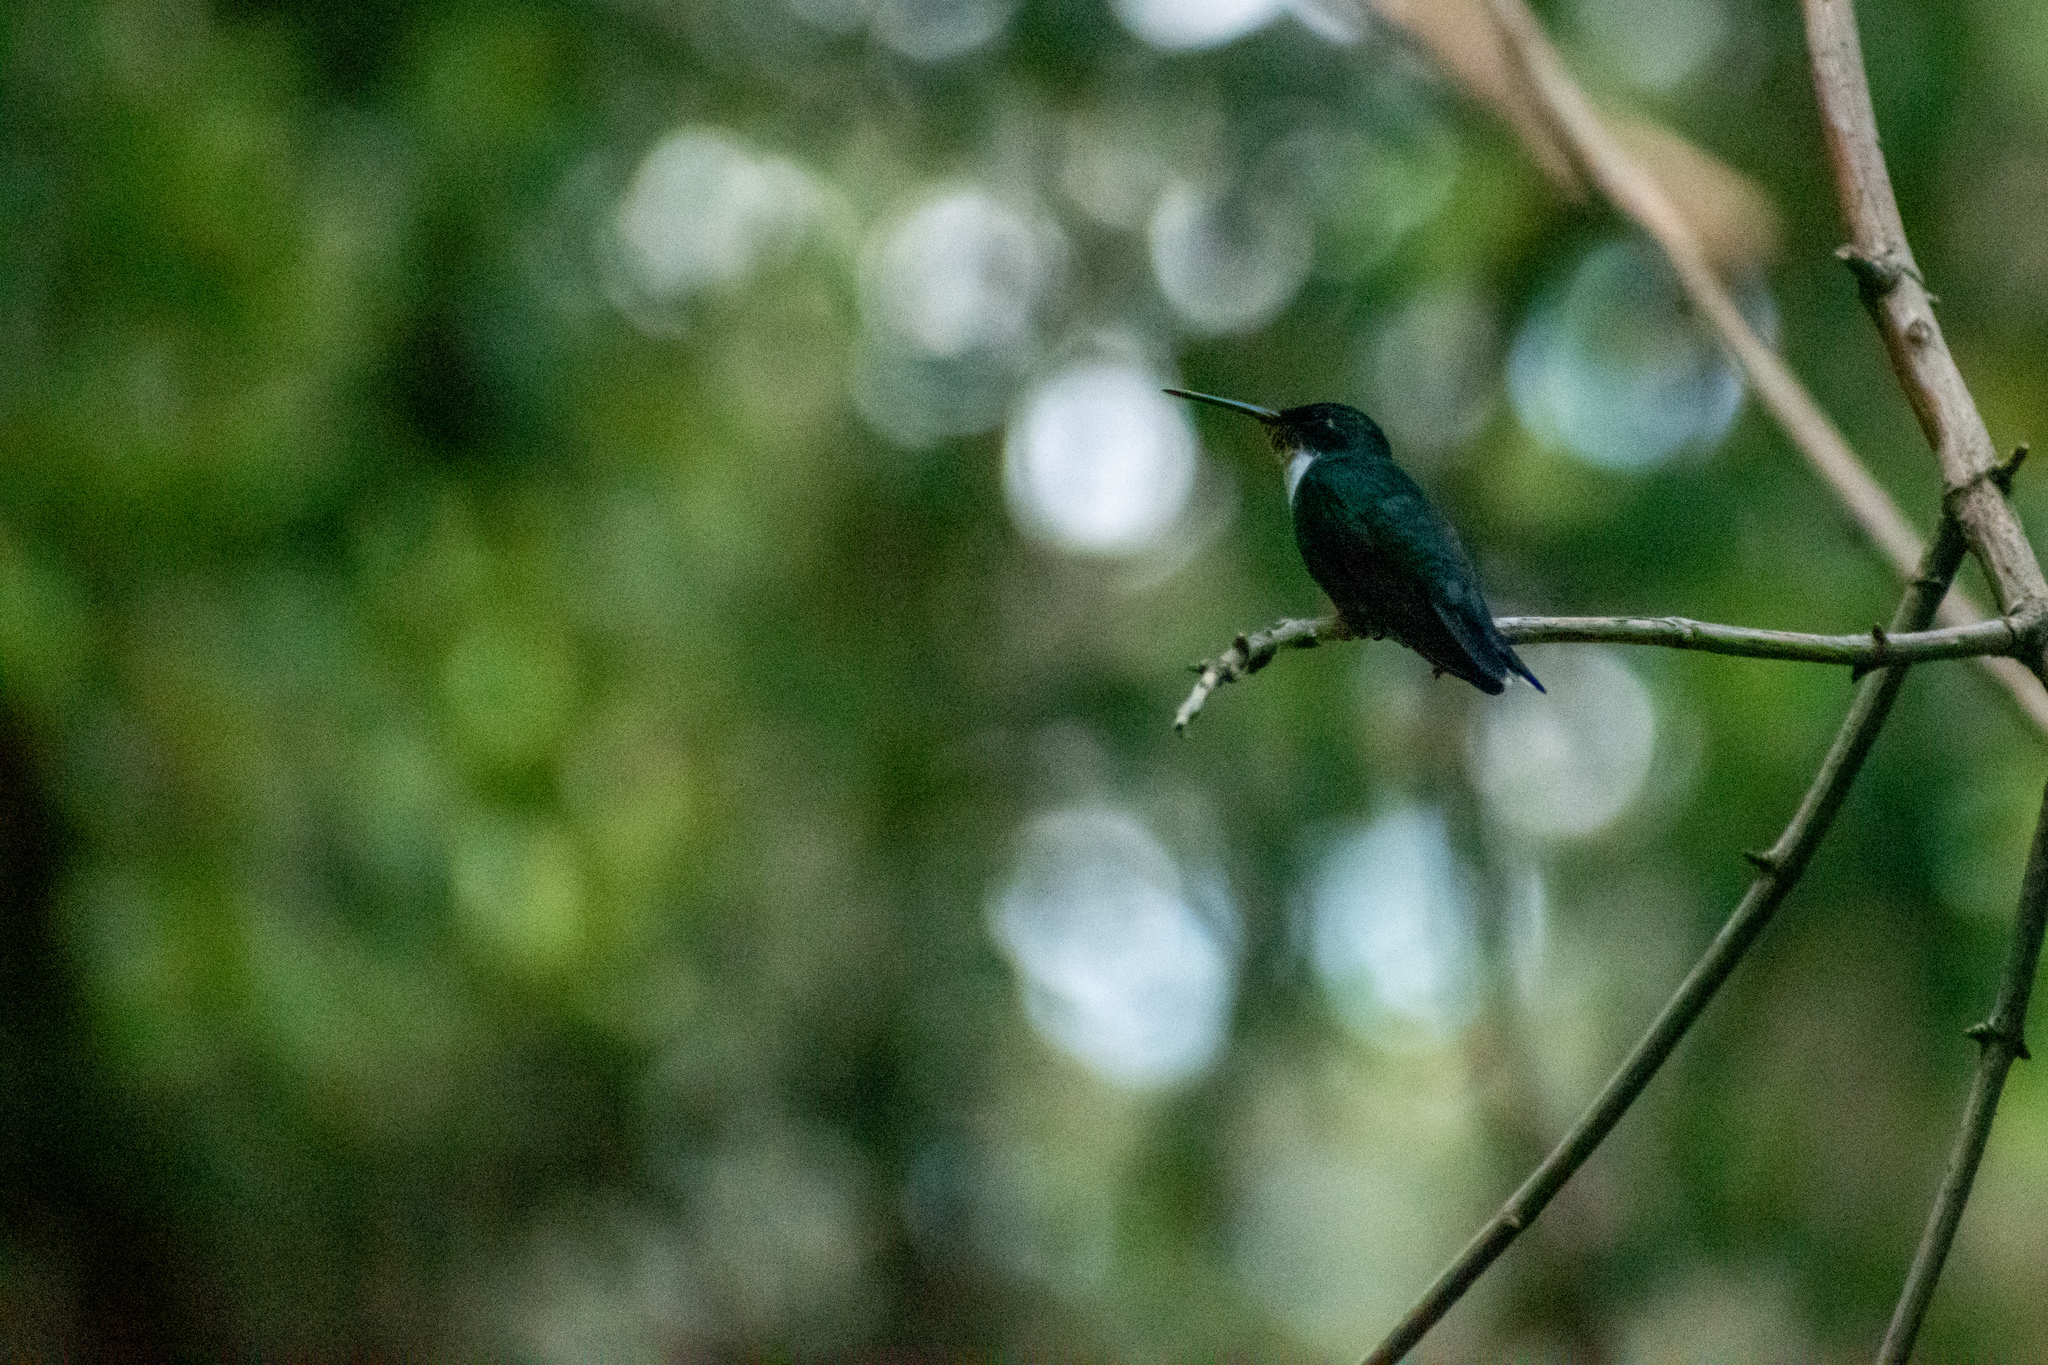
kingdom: Animalia
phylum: Chordata
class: Aves
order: Apodiformes
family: Trochilidae
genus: Leucochloris
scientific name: Leucochloris albicollis
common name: White-throated hummingbird
